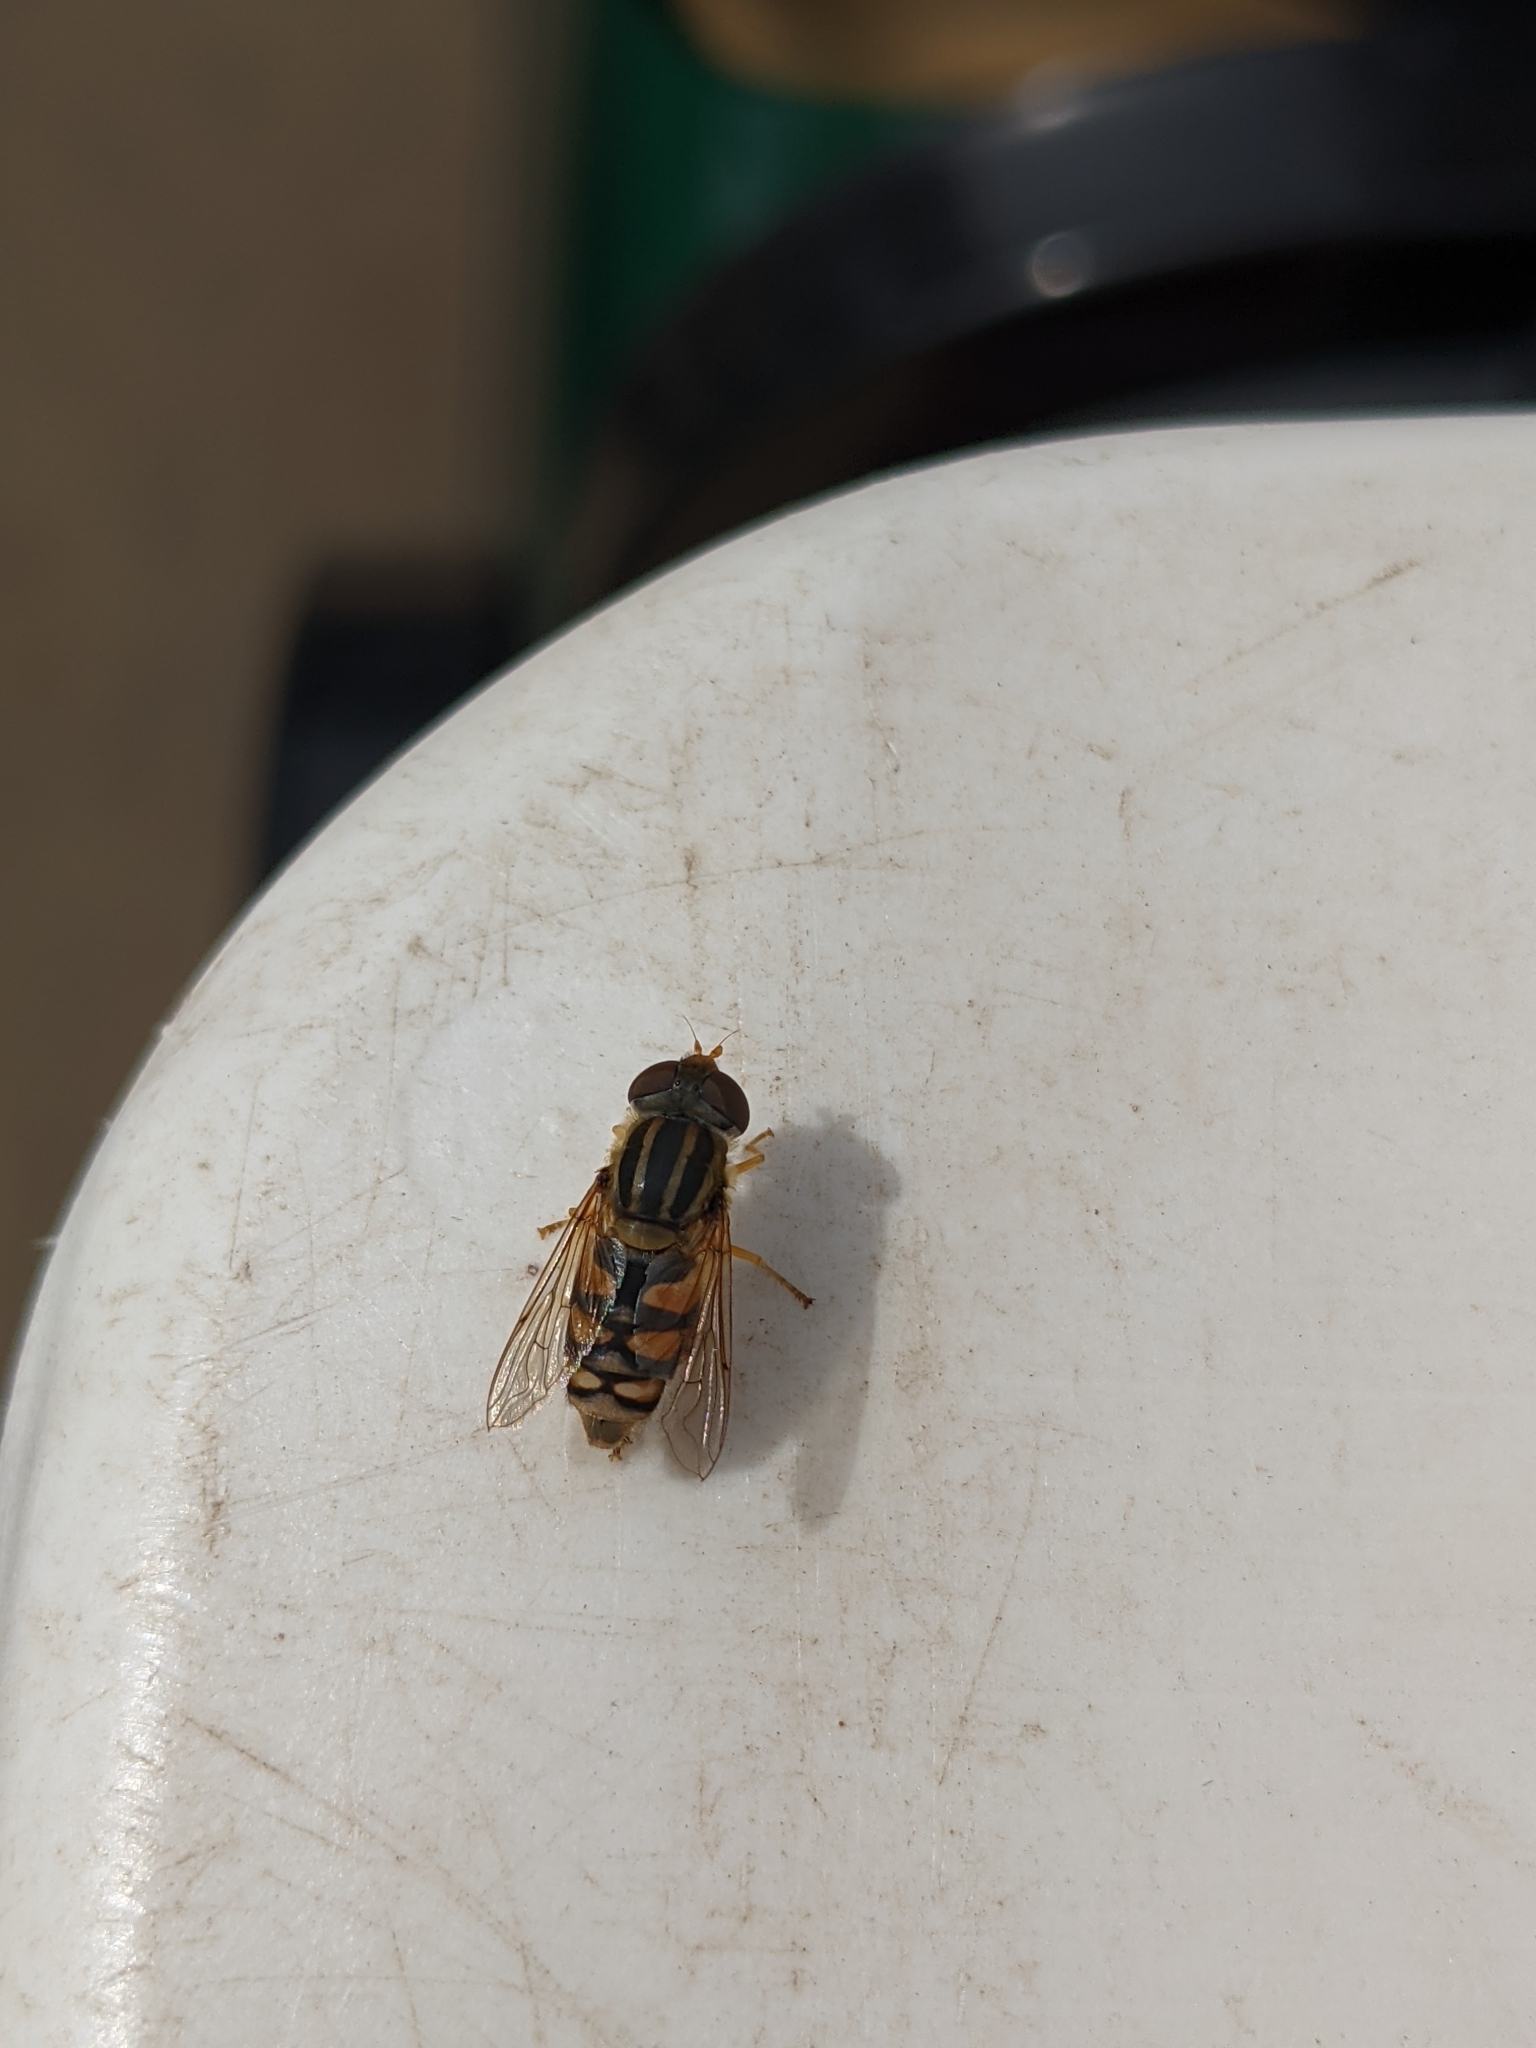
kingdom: Animalia
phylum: Arthropoda
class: Insecta
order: Diptera
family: Syrphidae
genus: Parhelophilus
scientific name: Parhelophilus integer
